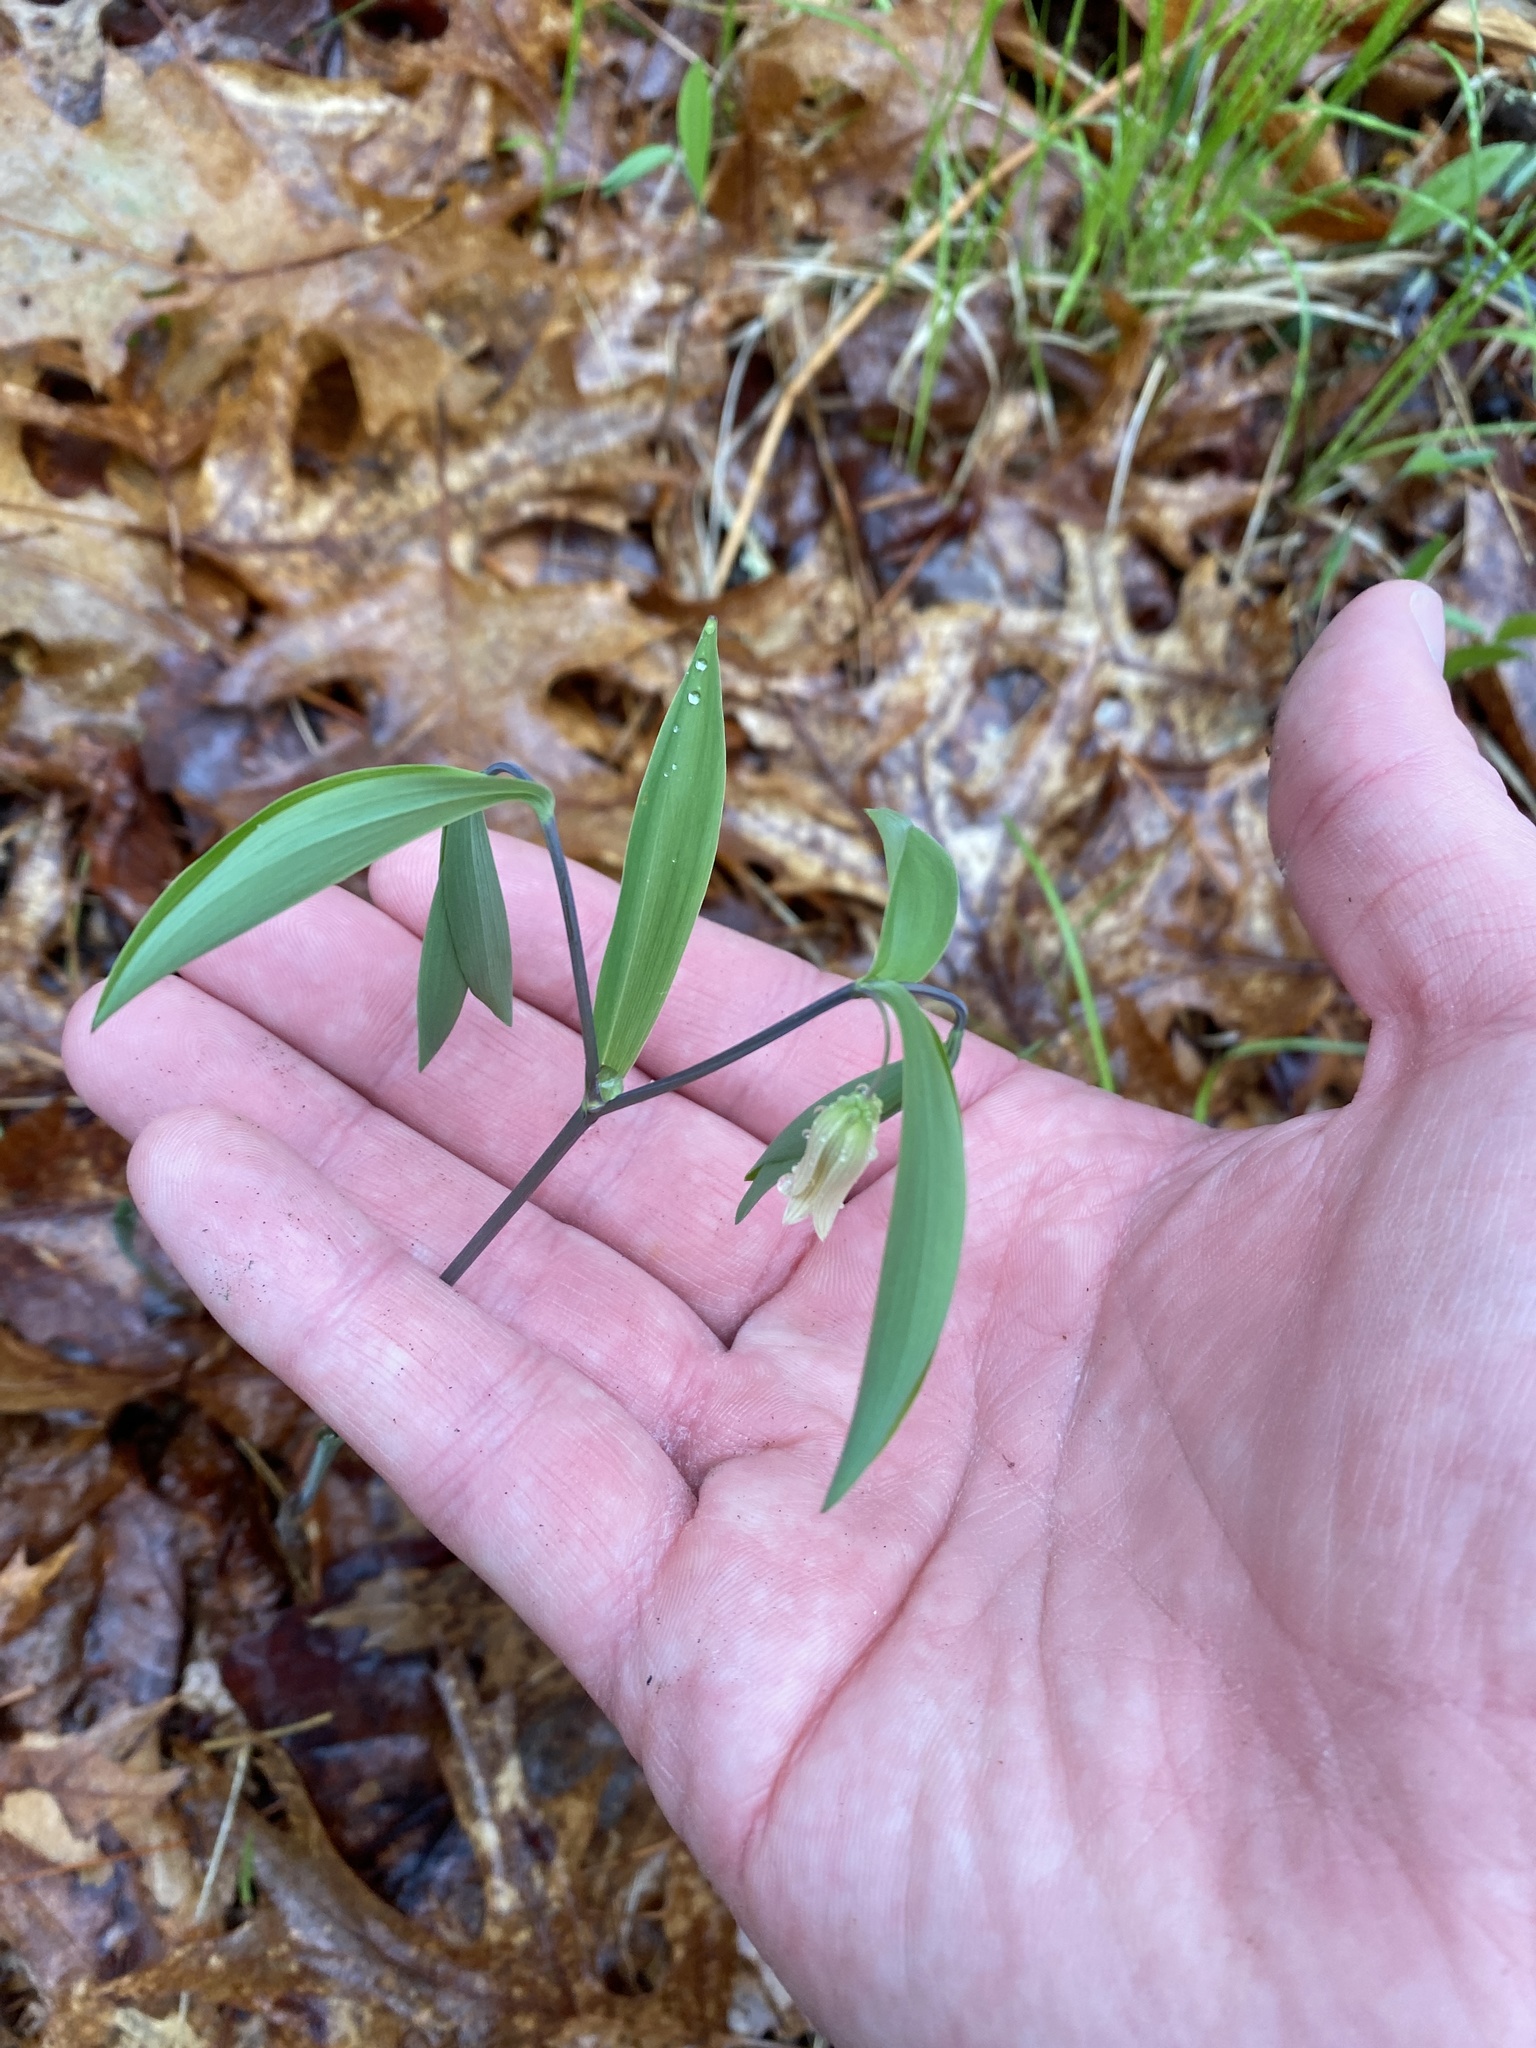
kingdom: Plantae
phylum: Tracheophyta
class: Liliopsida
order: Liliales
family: Colchicaceae
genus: Uvularia
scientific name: Uvularia sessilifolia
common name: Straw-lily
